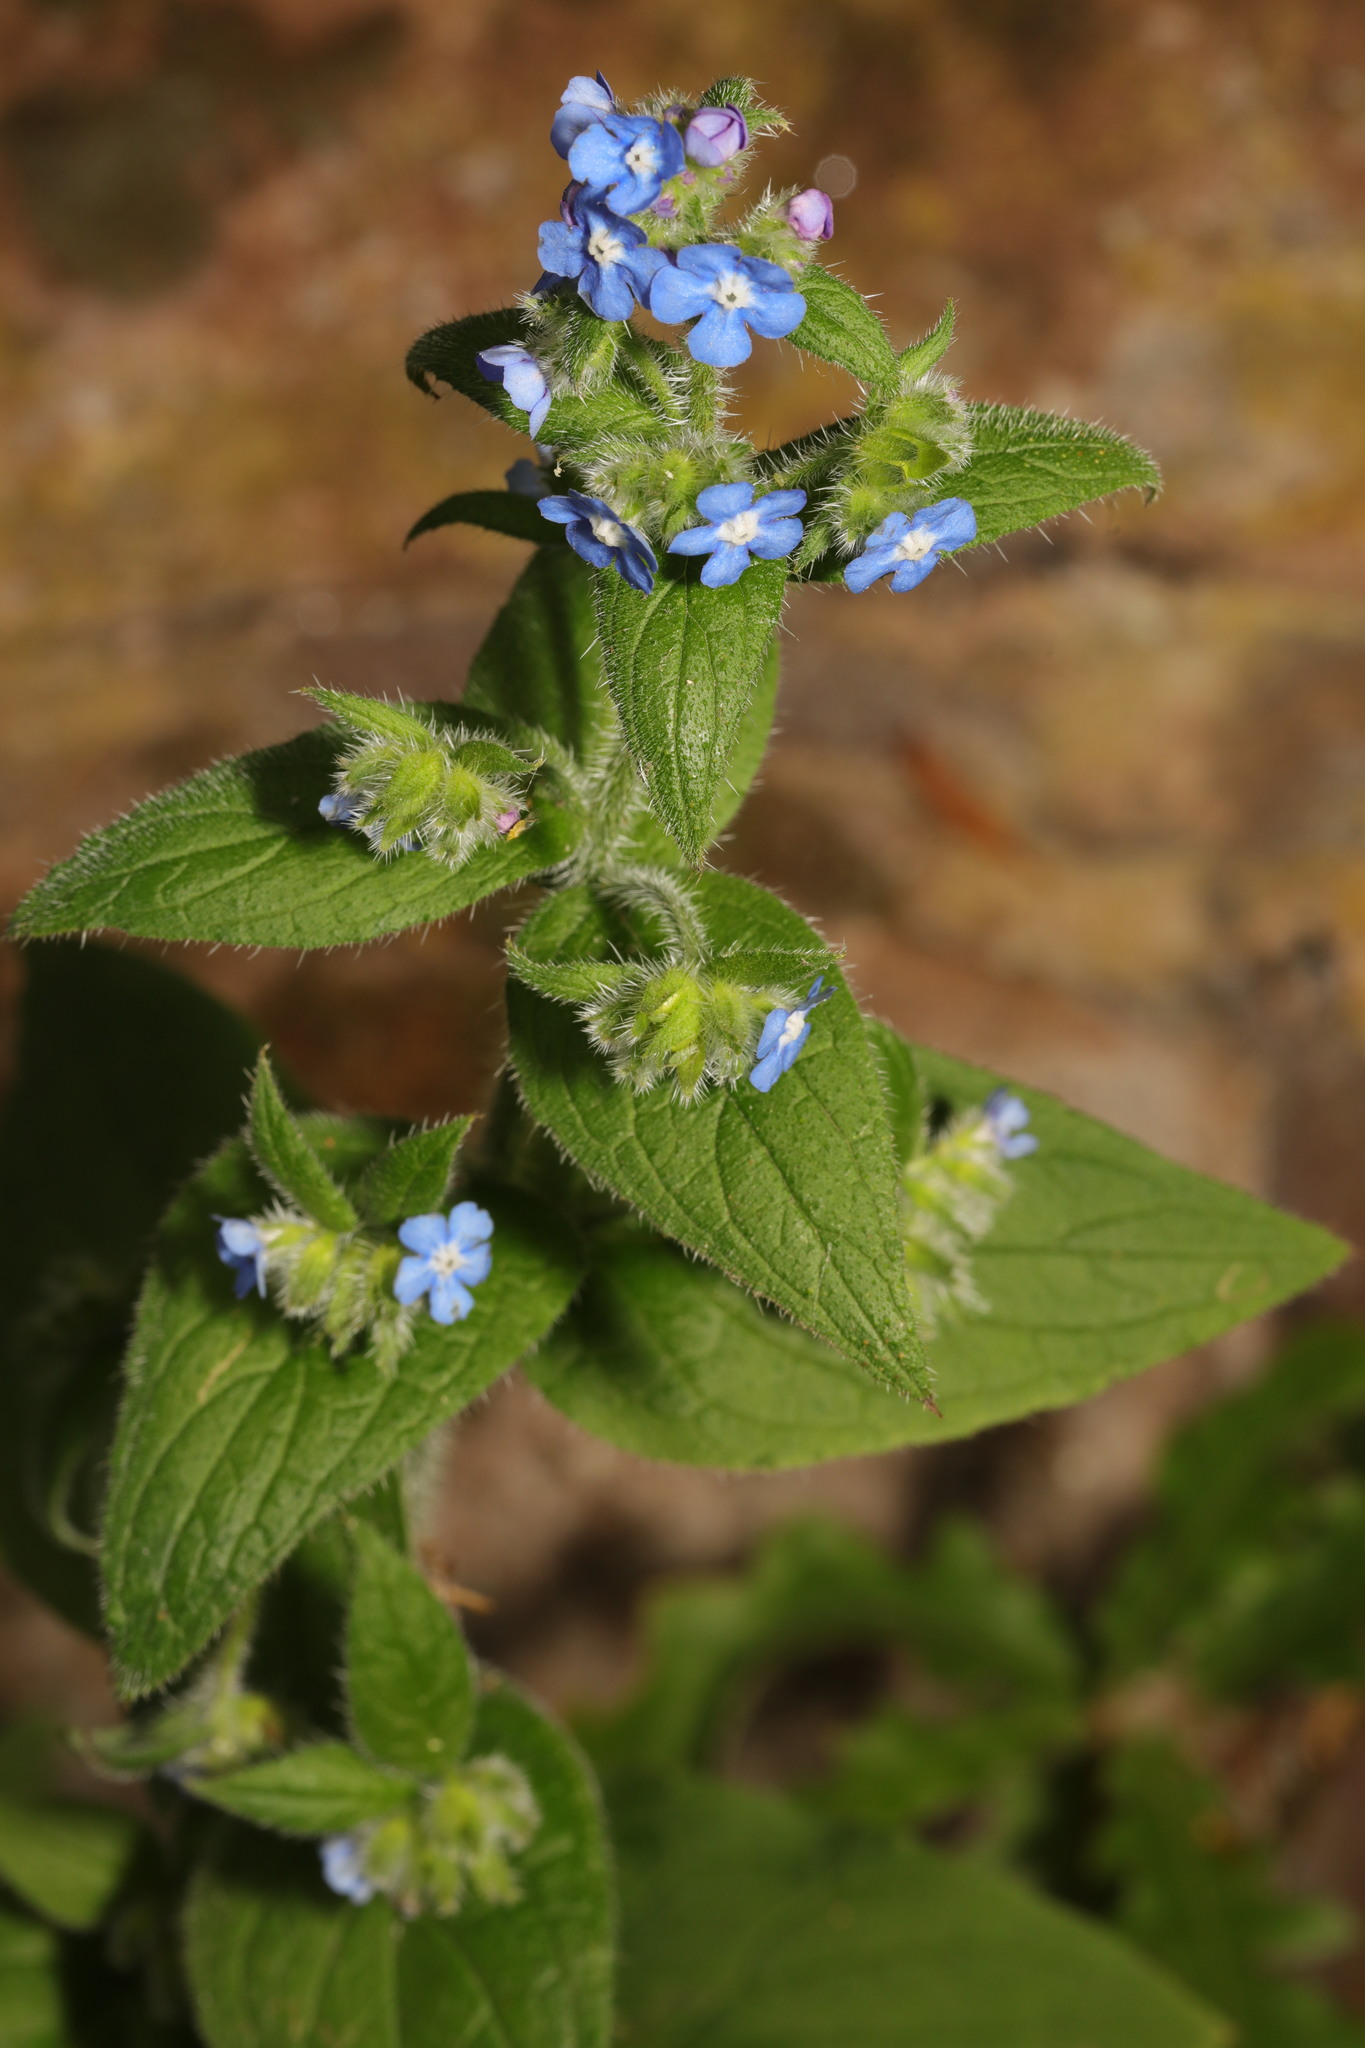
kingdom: Plantae
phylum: Tracheophyta
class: Magnoliopsida
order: Boraginales
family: Boraginaceae
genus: Pentaglottis
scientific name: Pentaglottis sempervirens
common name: Green alkanet
